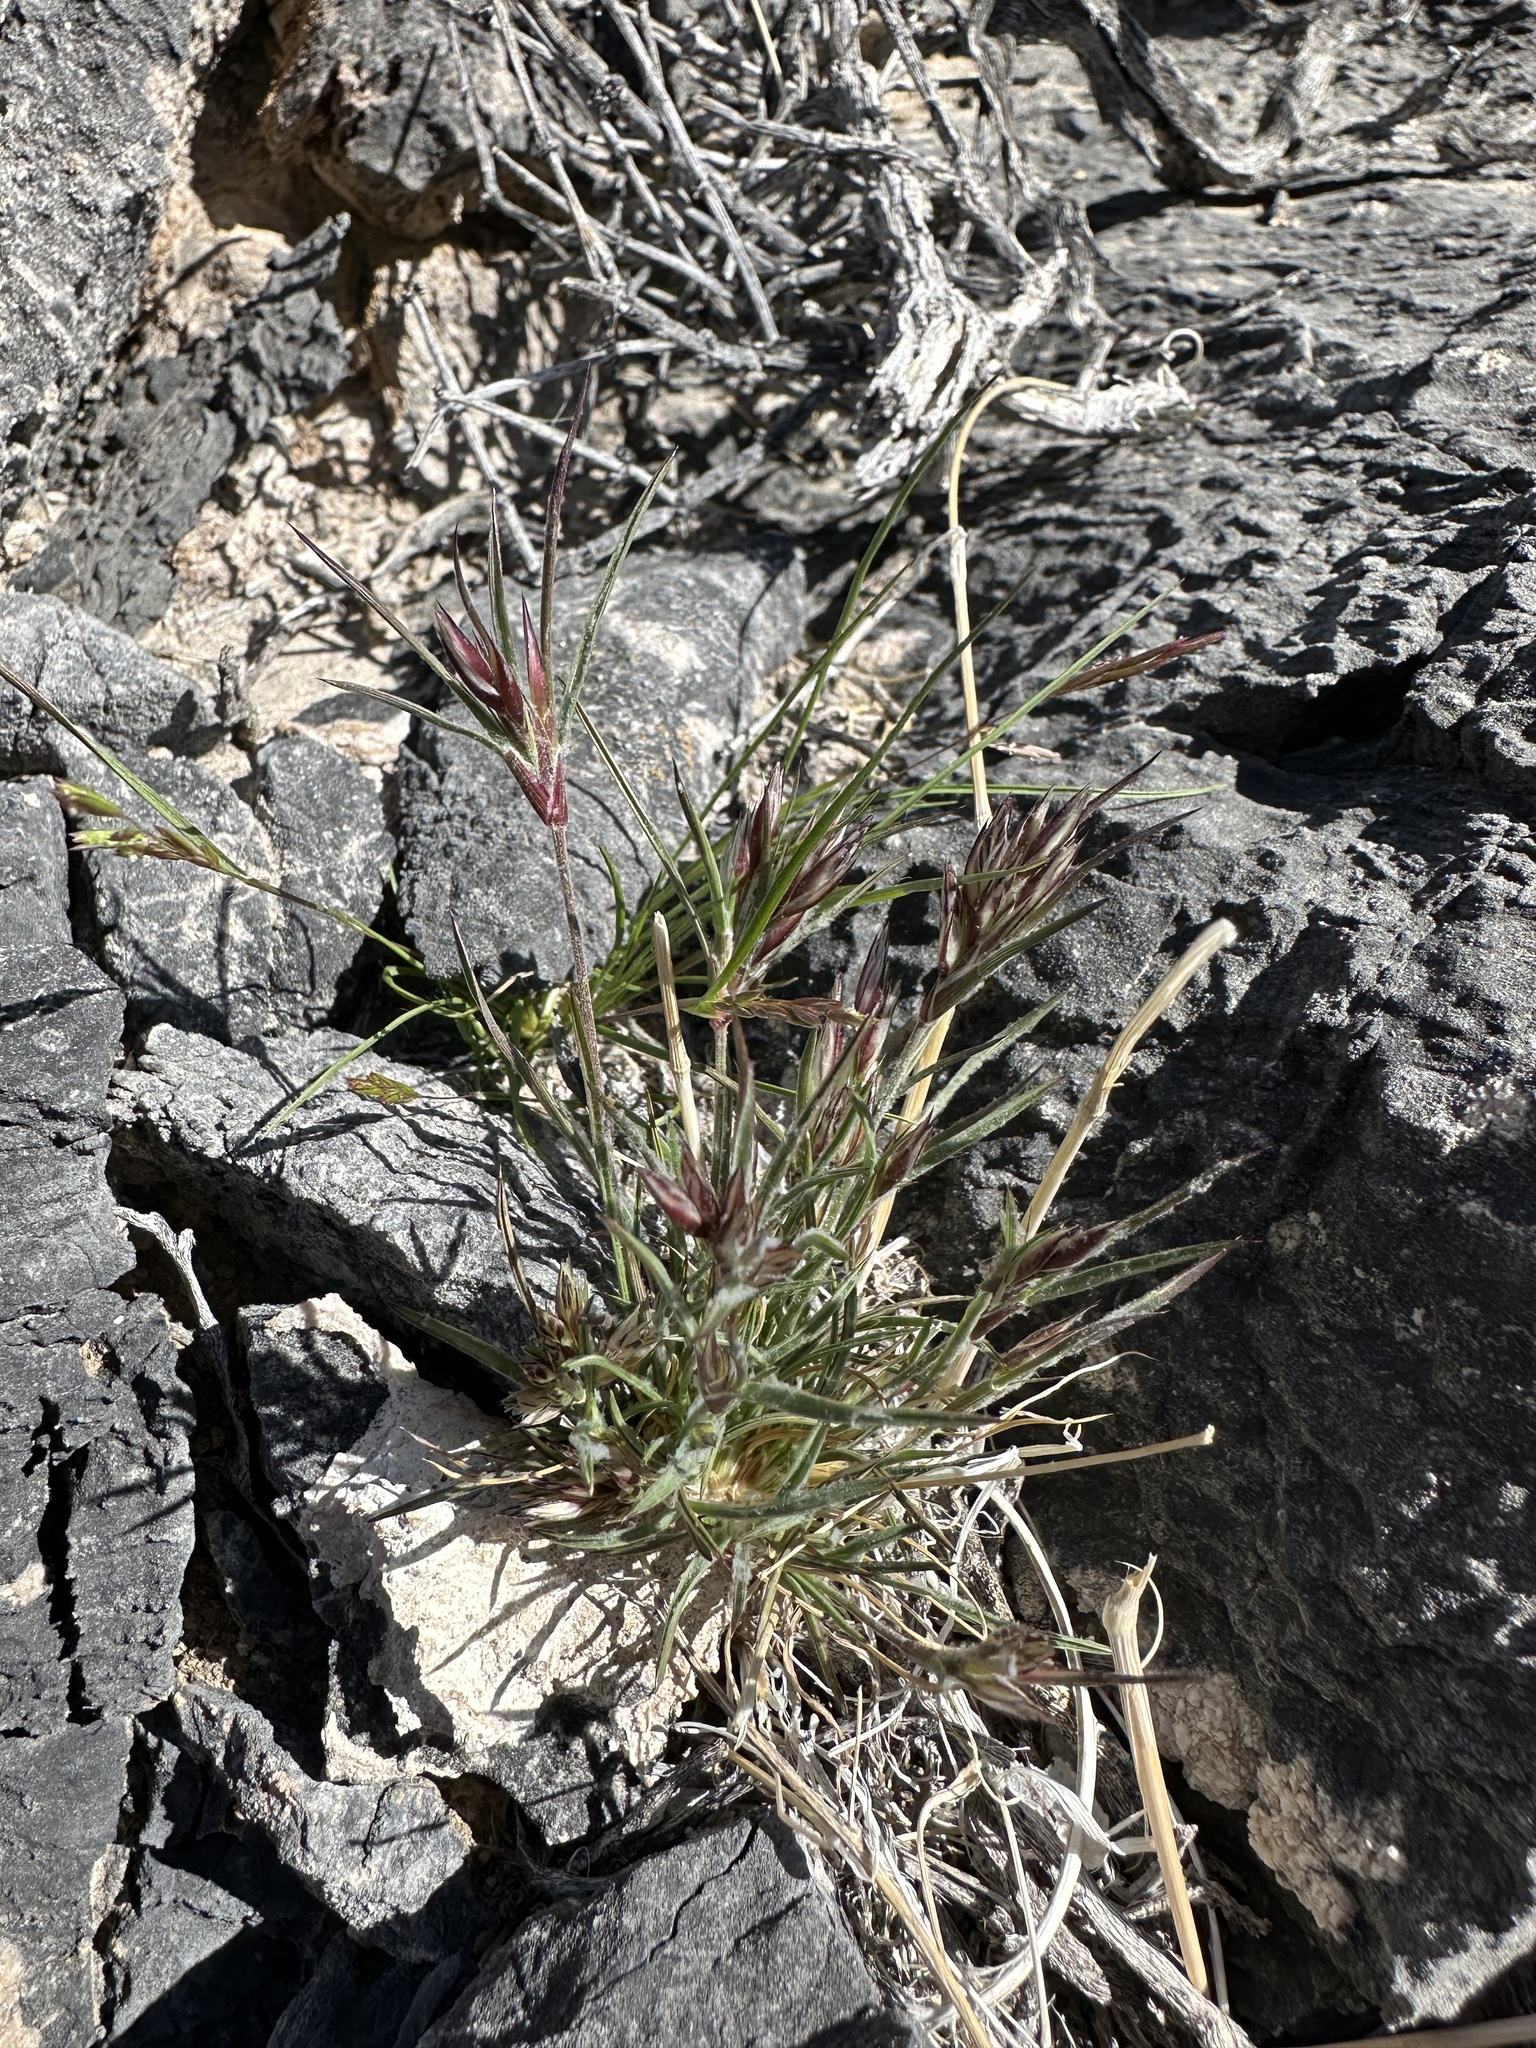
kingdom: Plantae
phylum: Tracheophyta
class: Liliopsida
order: Poales
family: Poaceae
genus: Dasyochloa
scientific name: Dasyochloa pulchella
